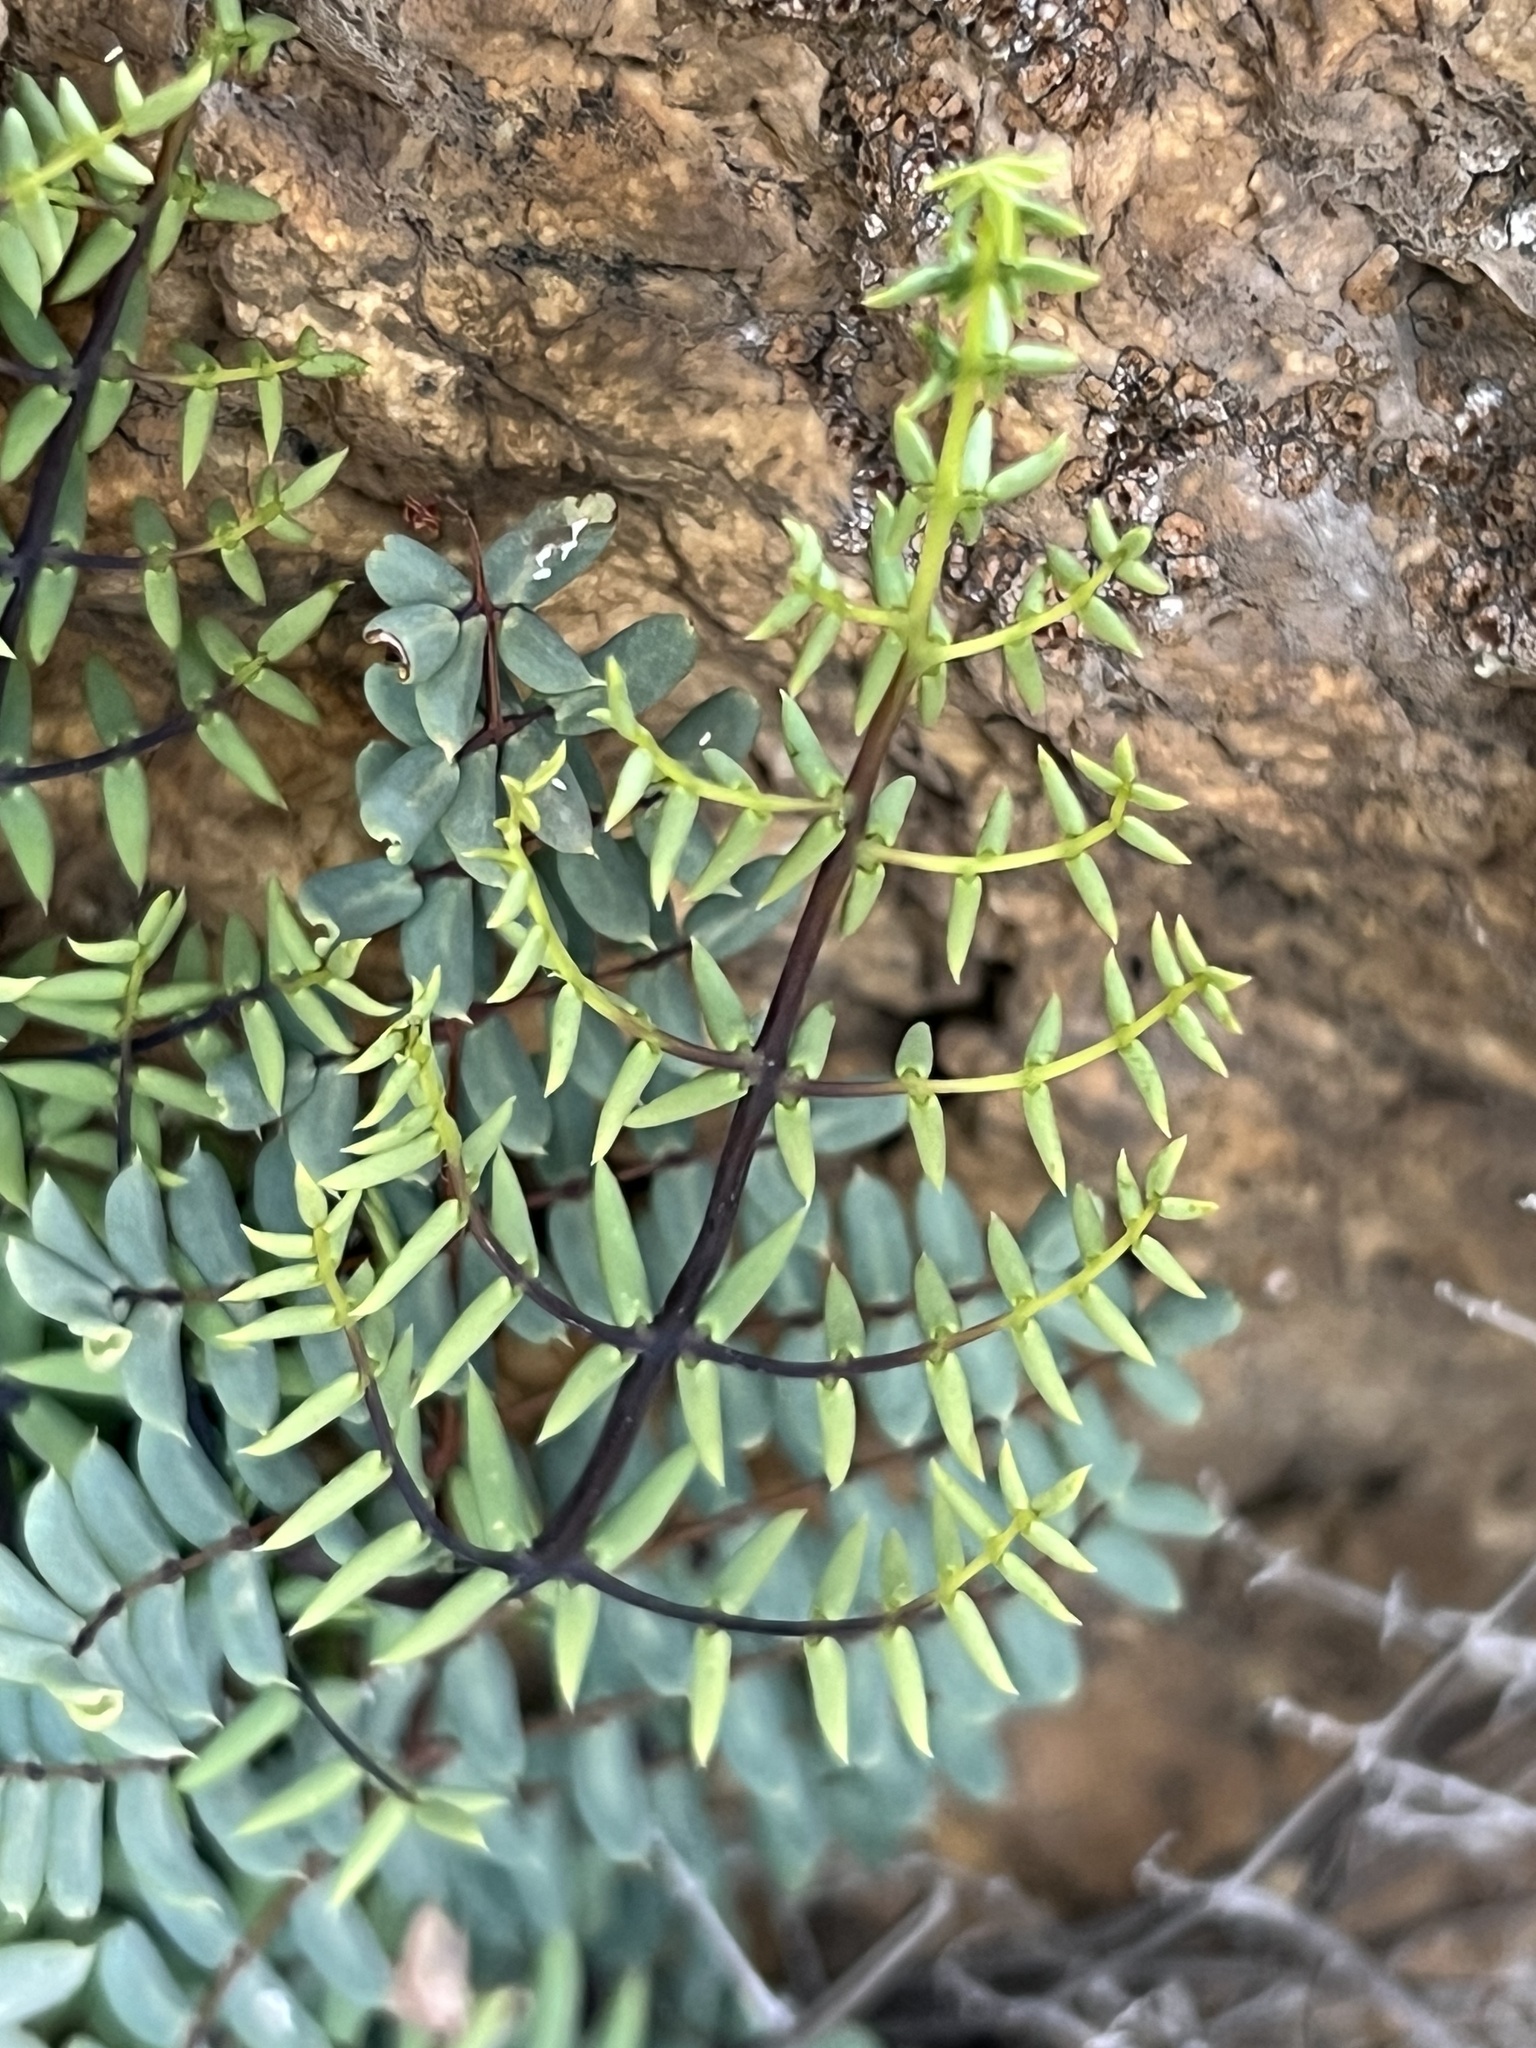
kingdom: Plantae
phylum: Tracheophyta
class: Polypodiopsida
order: Polypodiales
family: Pteridaceae
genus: Pellaea
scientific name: Pellaea truncata
